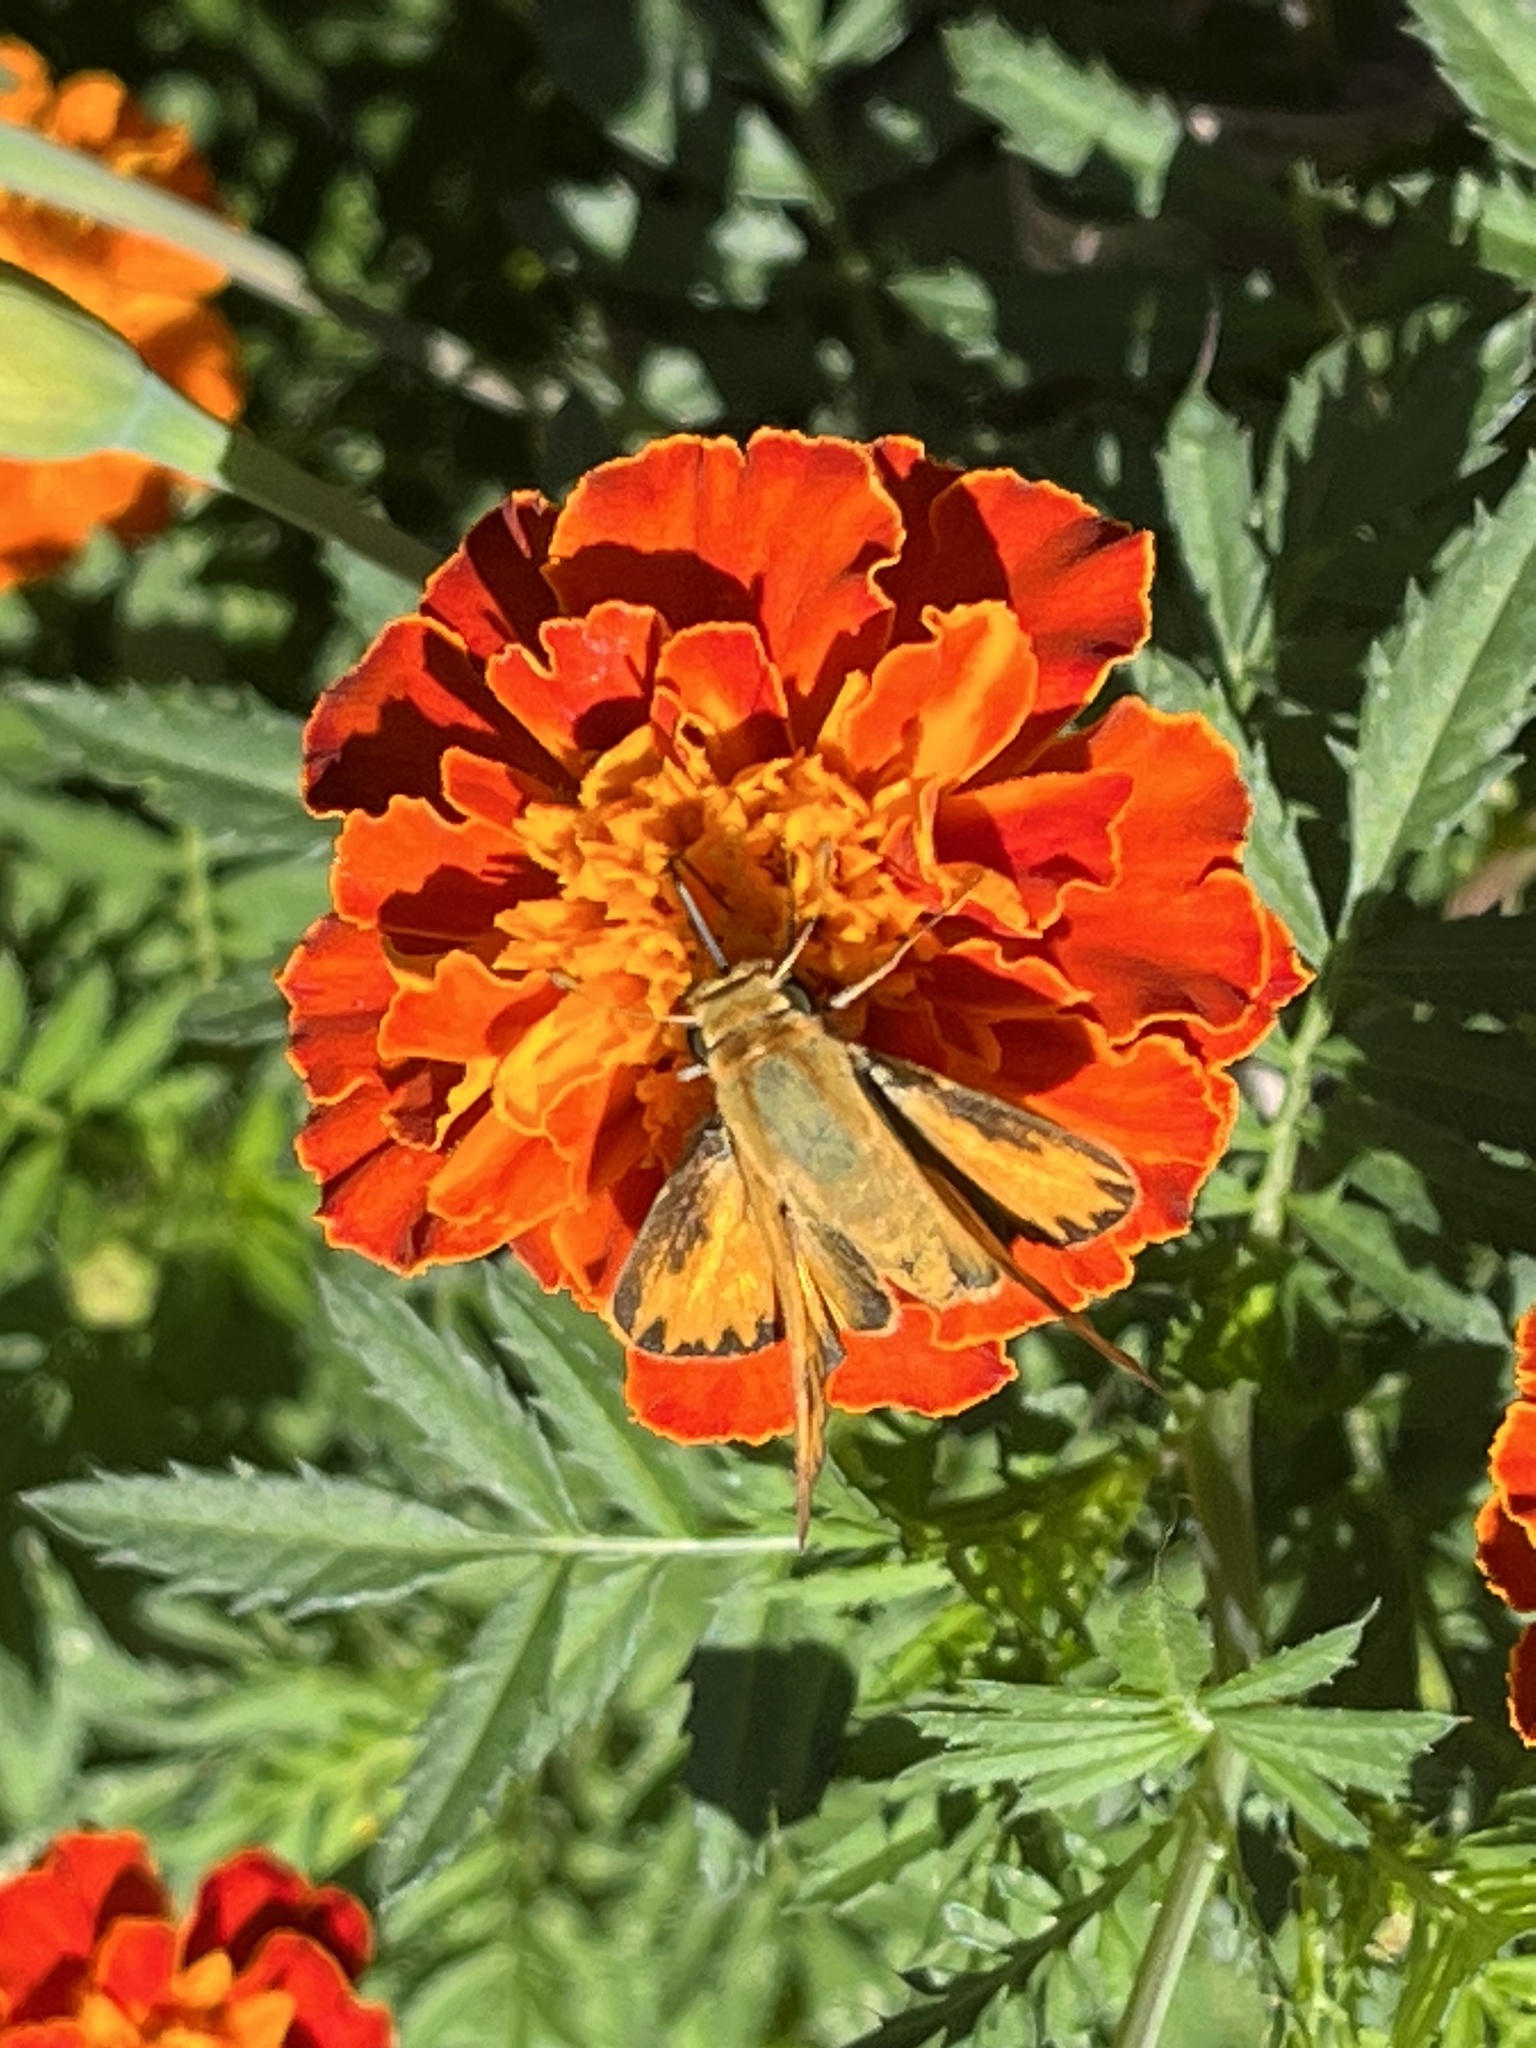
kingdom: Animalia
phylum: Arthropoda
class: Insecta
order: Lepidoptera
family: Hesperiidae
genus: Hylephila
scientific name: Hylephila phyleus
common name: Fiery skipper
